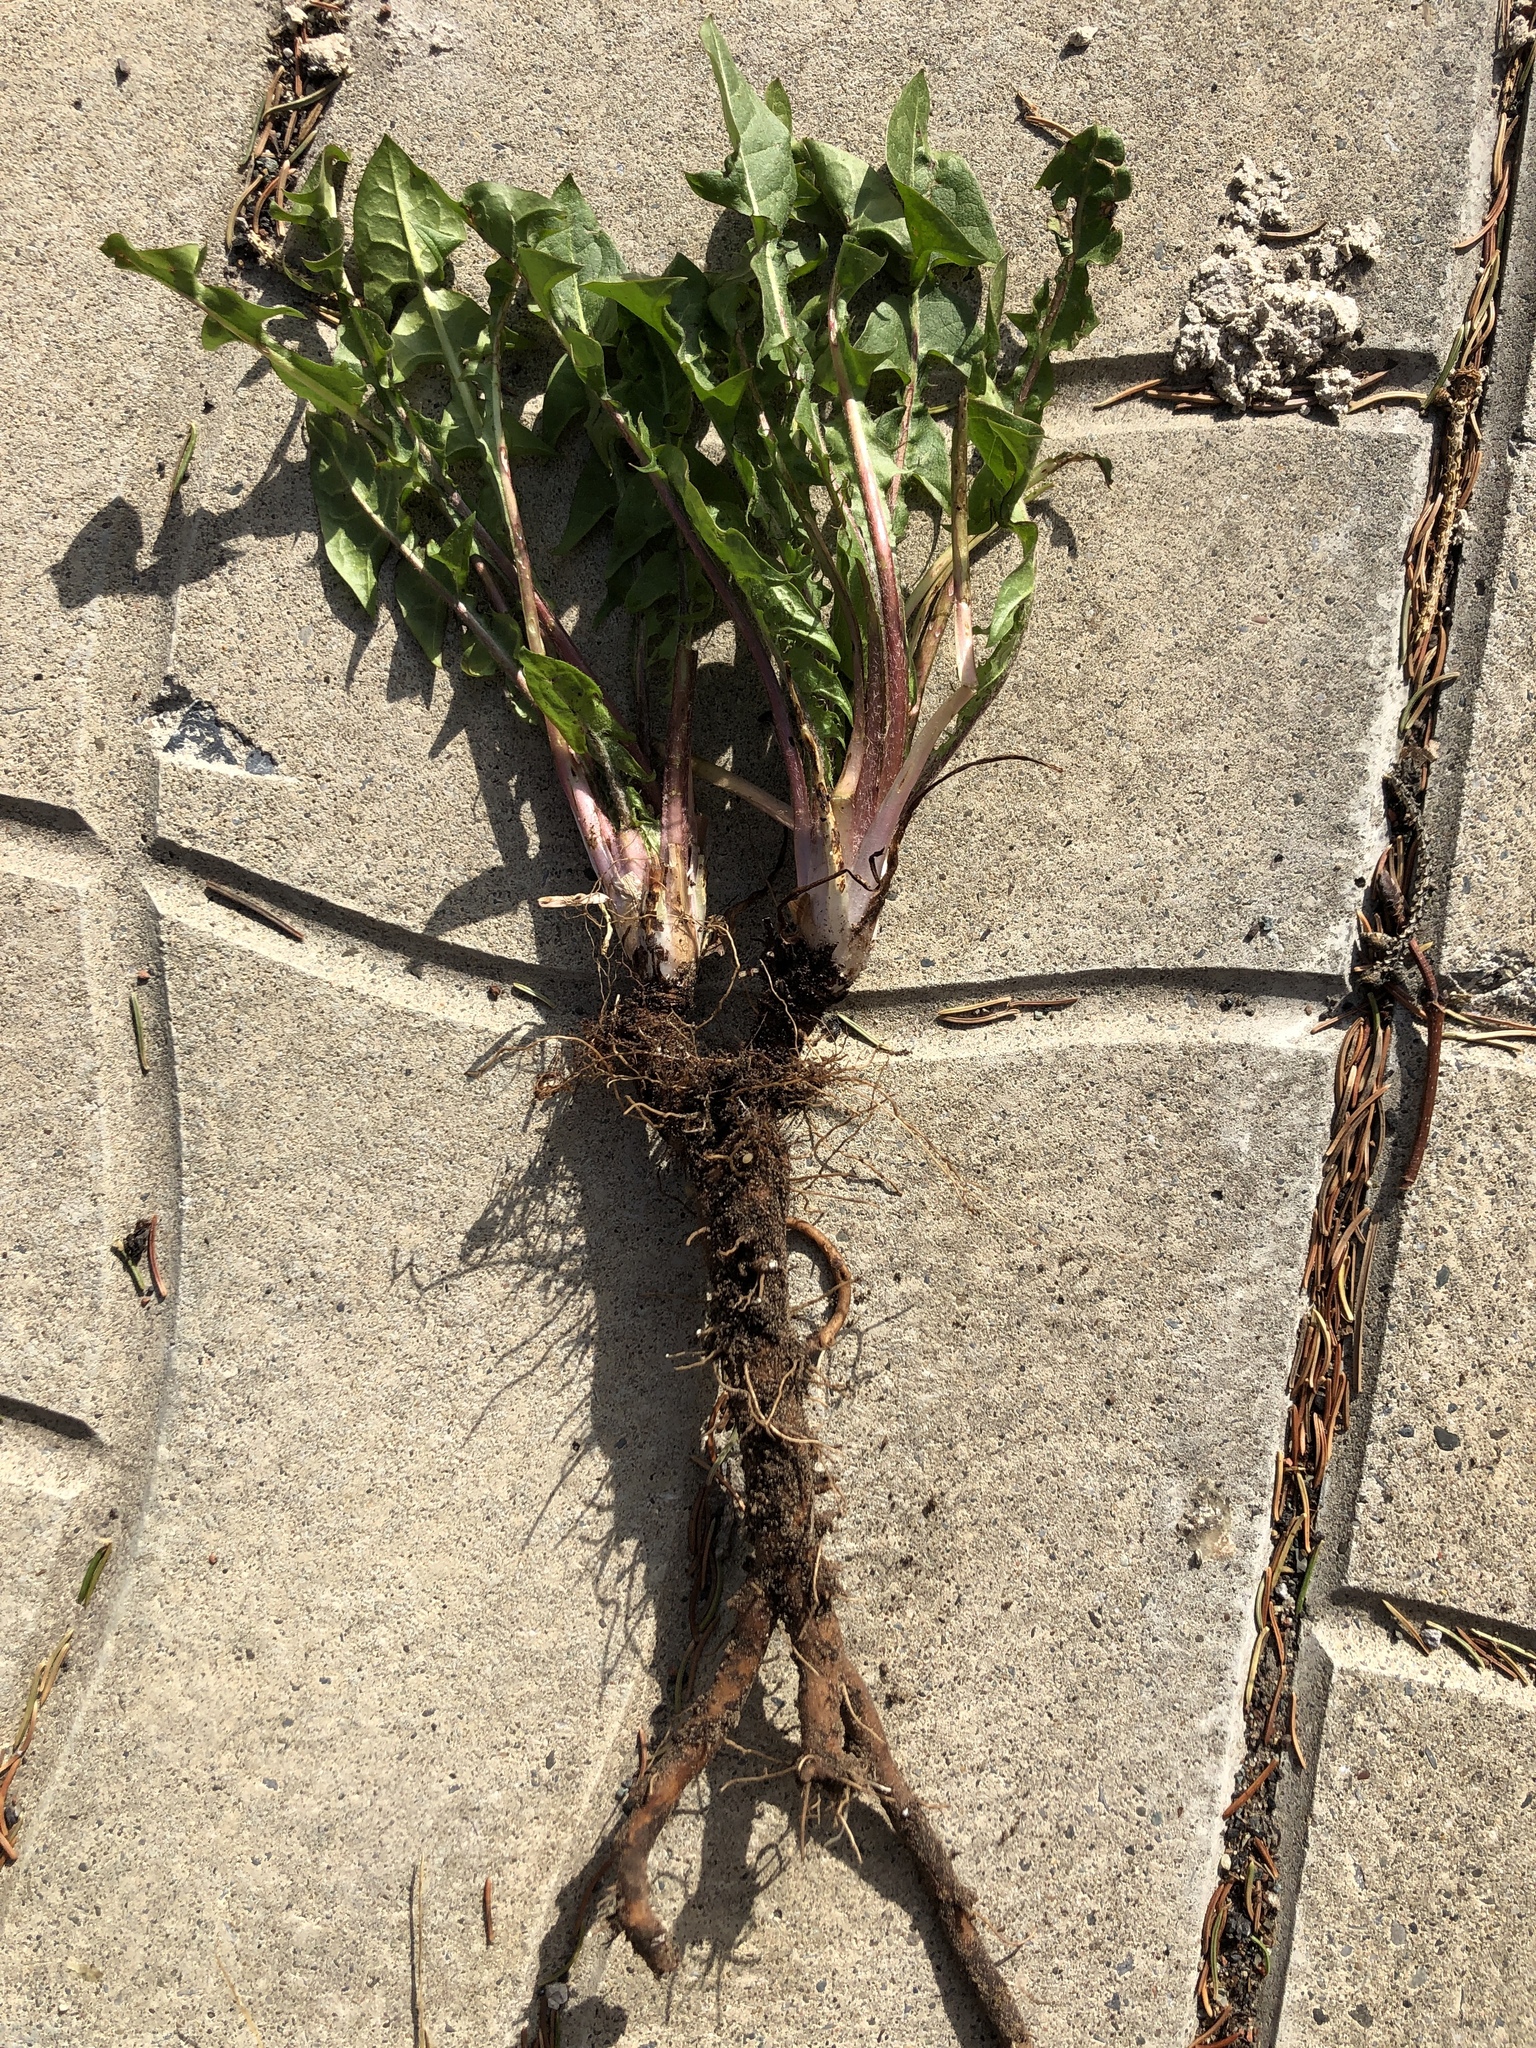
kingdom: Plantae
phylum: Tracheophyta
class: Magnoliopsida
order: Asterales
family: Asteraceae
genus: Taraxacum
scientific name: Taraxacum officinale
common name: Common dandelion
